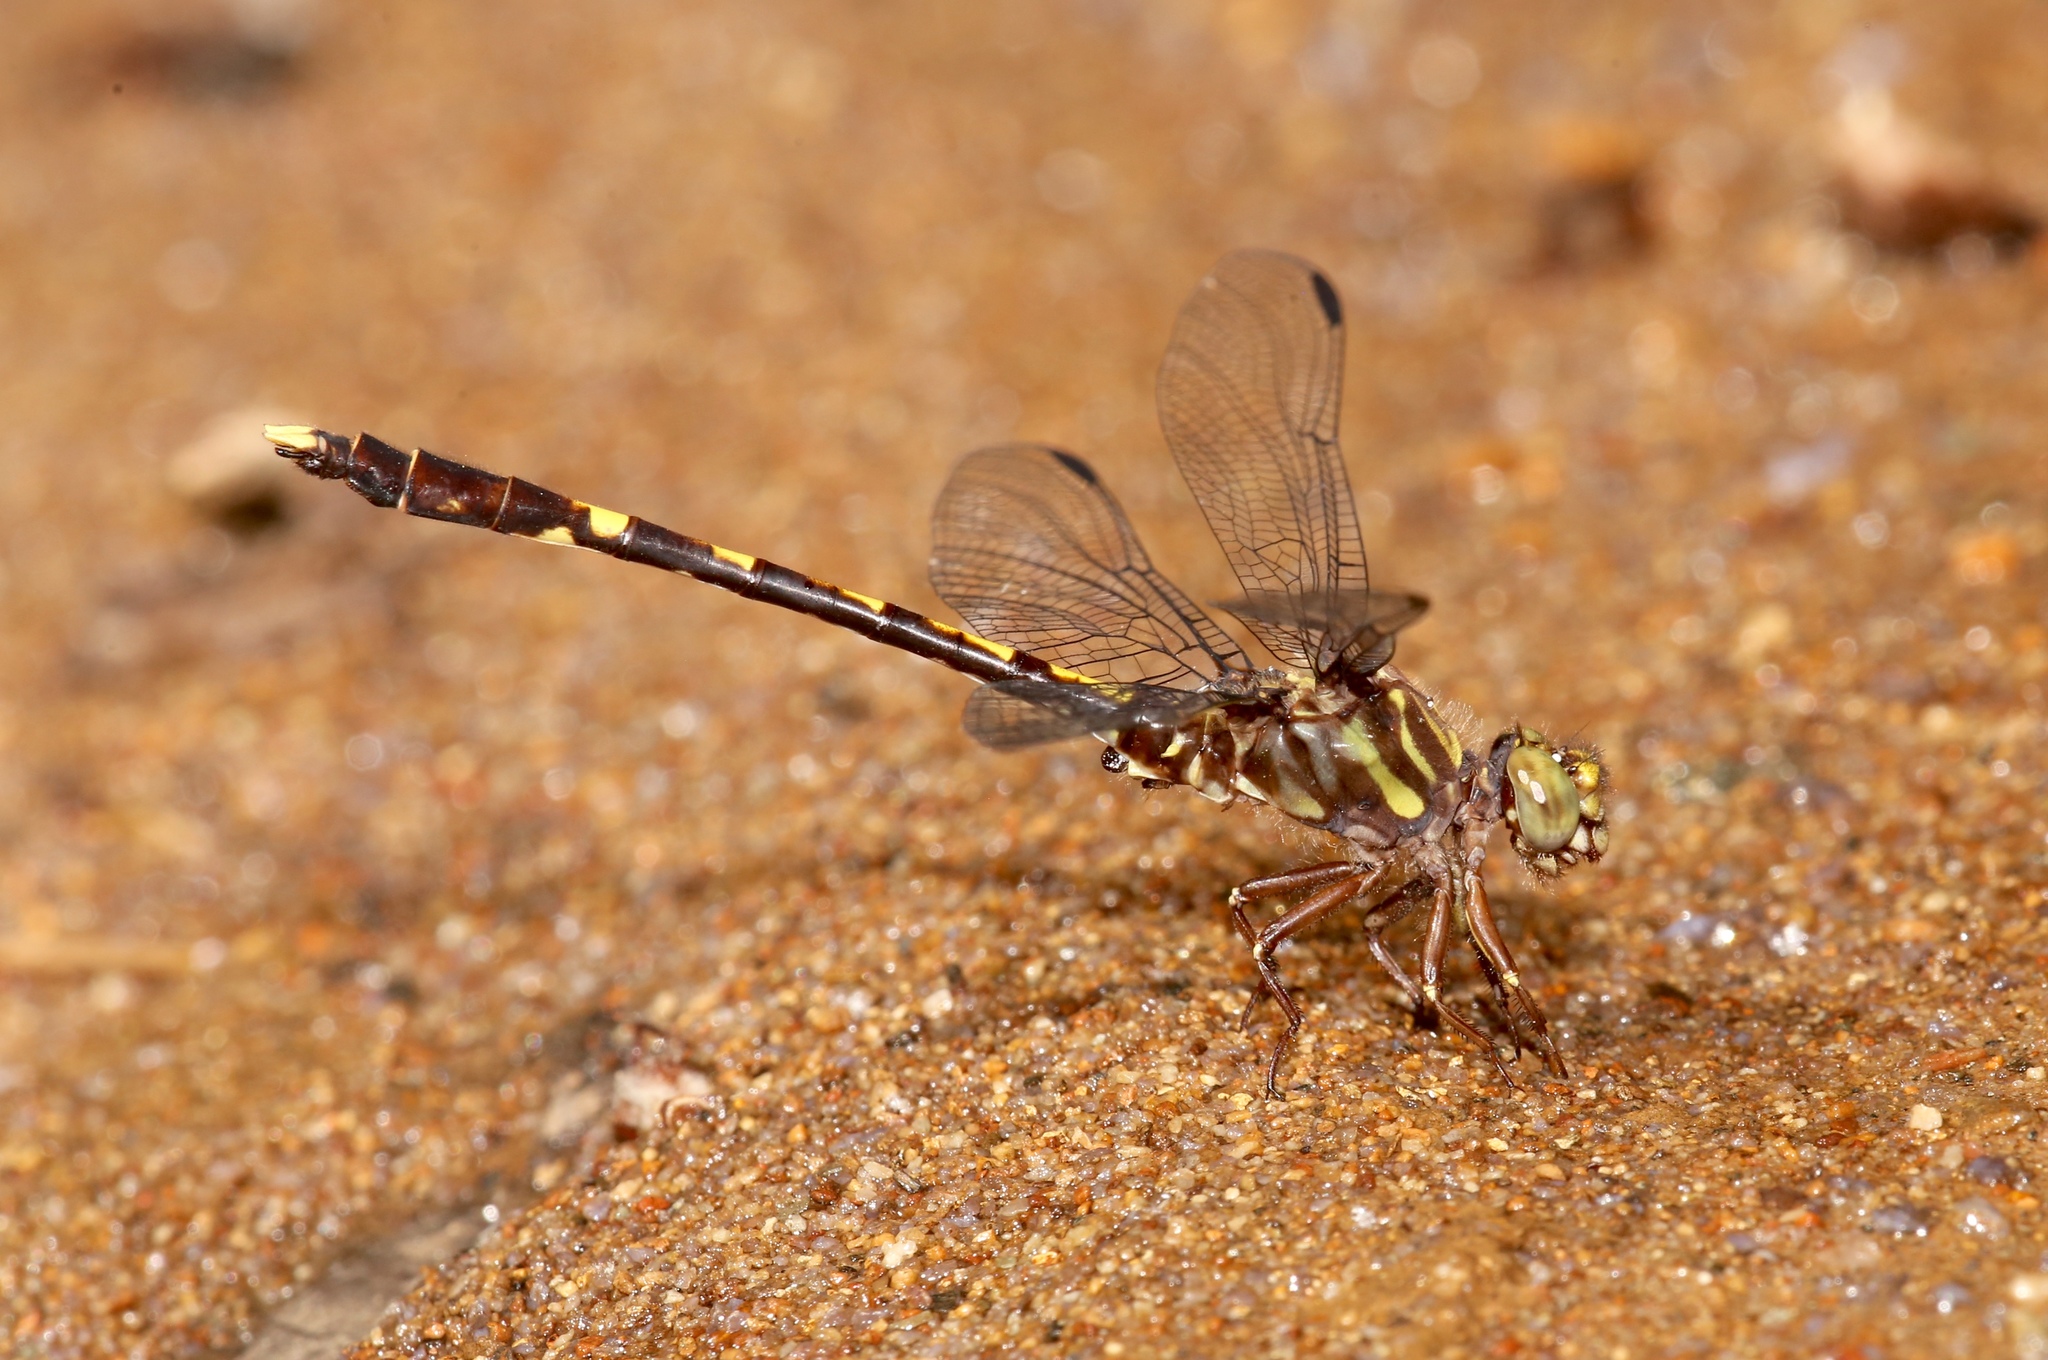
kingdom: Animalia
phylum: Arthropoda
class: Insecta
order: Odonata
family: Gomphidae
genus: Progomphus
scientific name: Progomphus obscurus
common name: Common sanddragon
